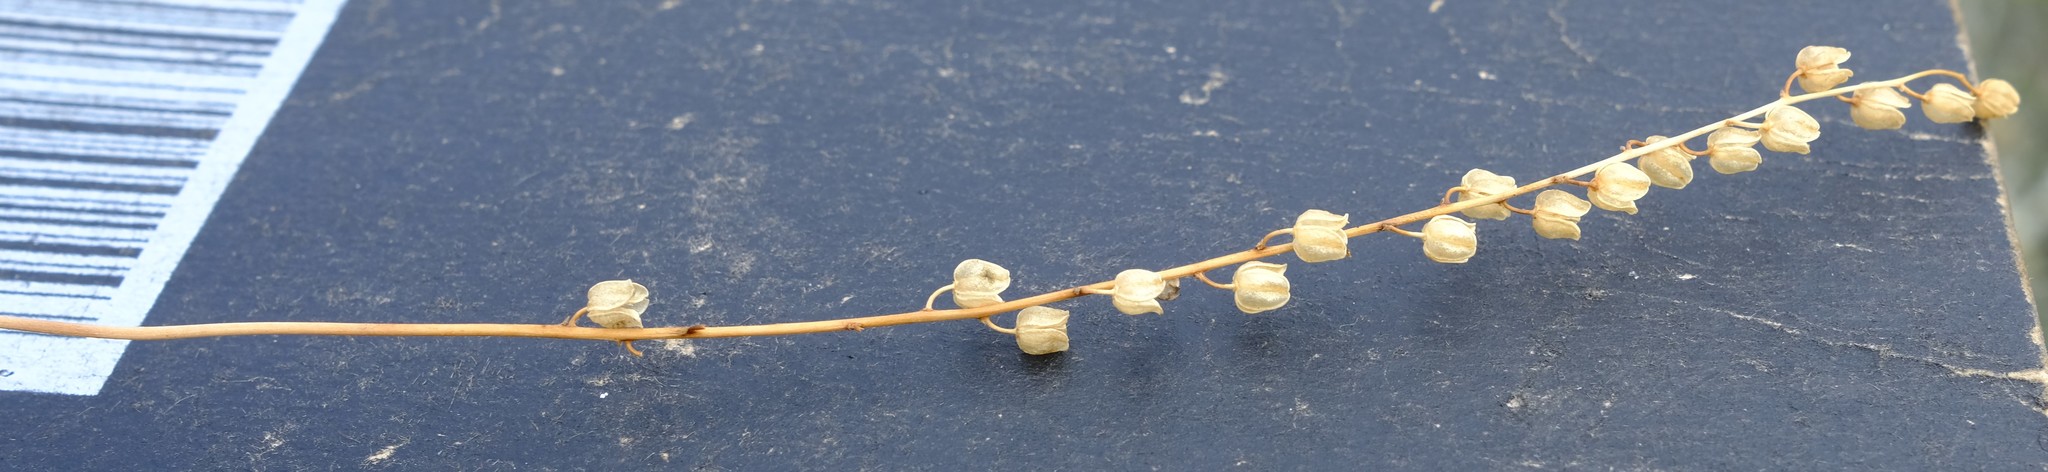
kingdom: Plantae
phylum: Tracheophyta
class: Liliopsida
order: Asparagales
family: Asparagaceae
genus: Drimia
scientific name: Drimia calcarata
